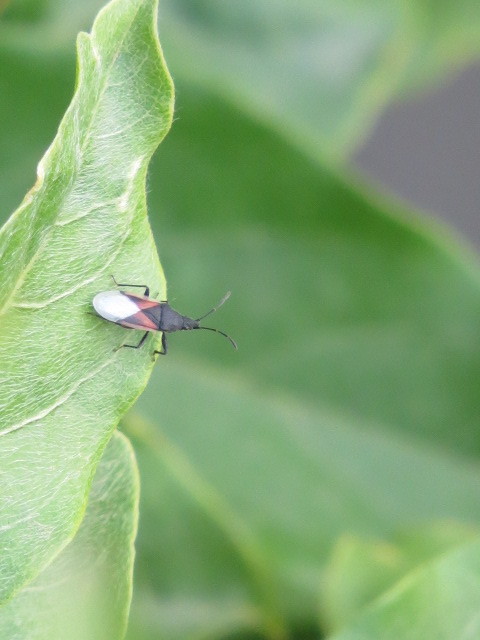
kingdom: Animalia
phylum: Arthropoda
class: Insecta
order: Hemiptera
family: Oxycarenidae
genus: Oxycarenus
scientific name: Oxycarenus lavaterae
